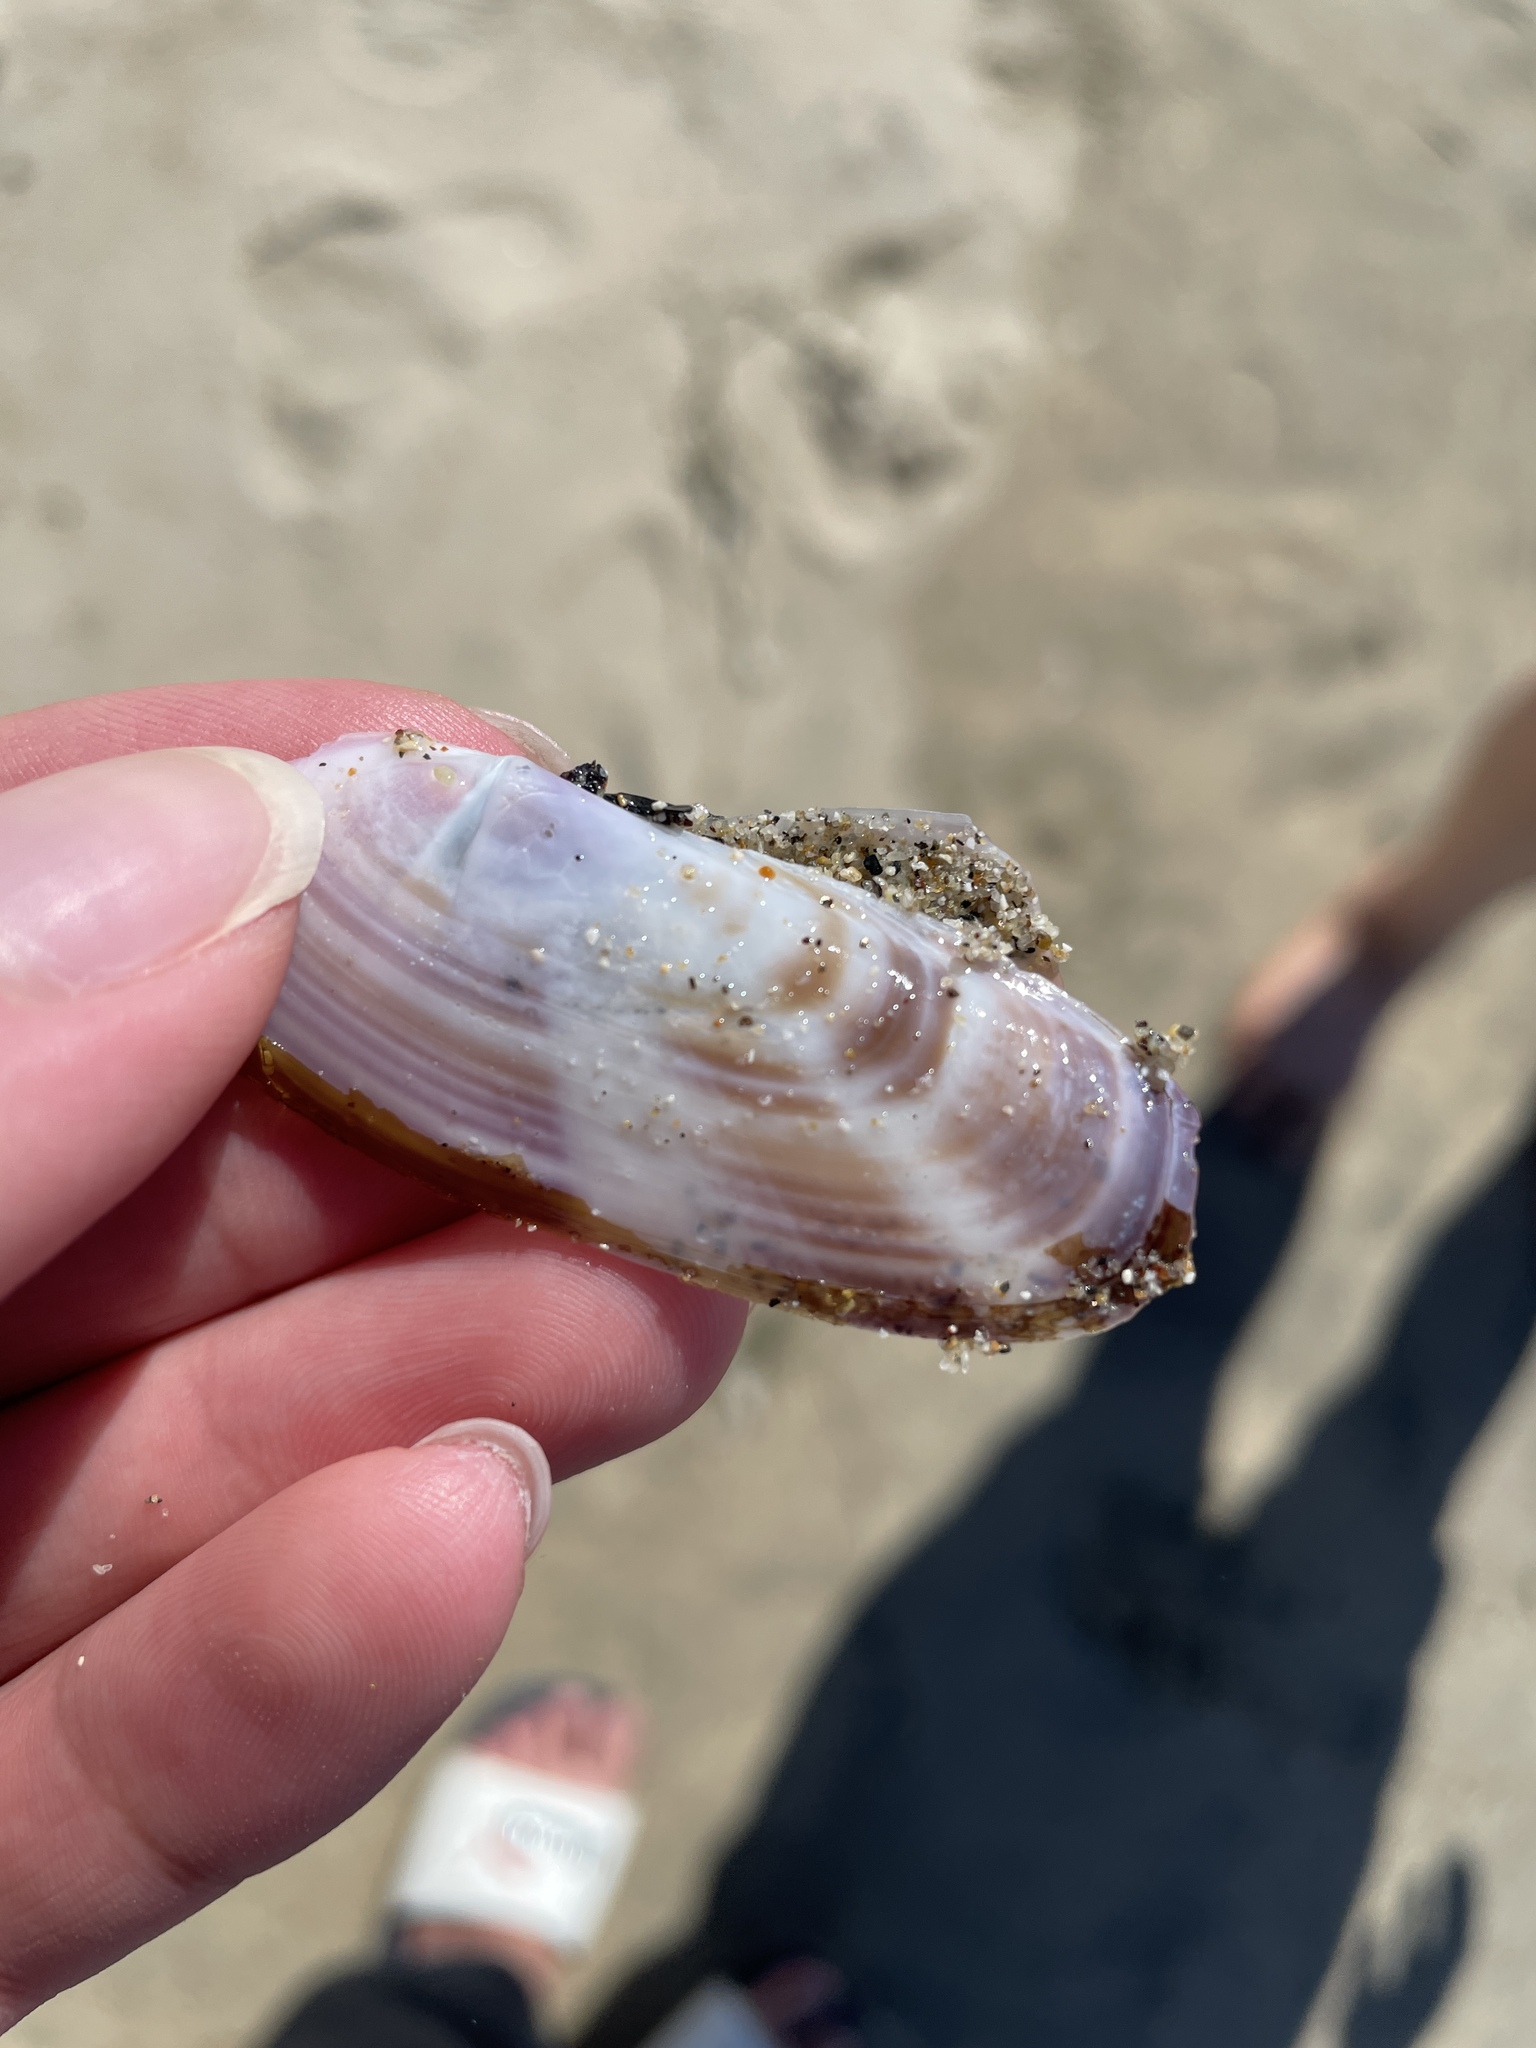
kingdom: Animalia
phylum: Mollusca
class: Bivalvia
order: Adapedonta
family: Pharidae
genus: Siliqua
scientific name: Siliqua lucida
